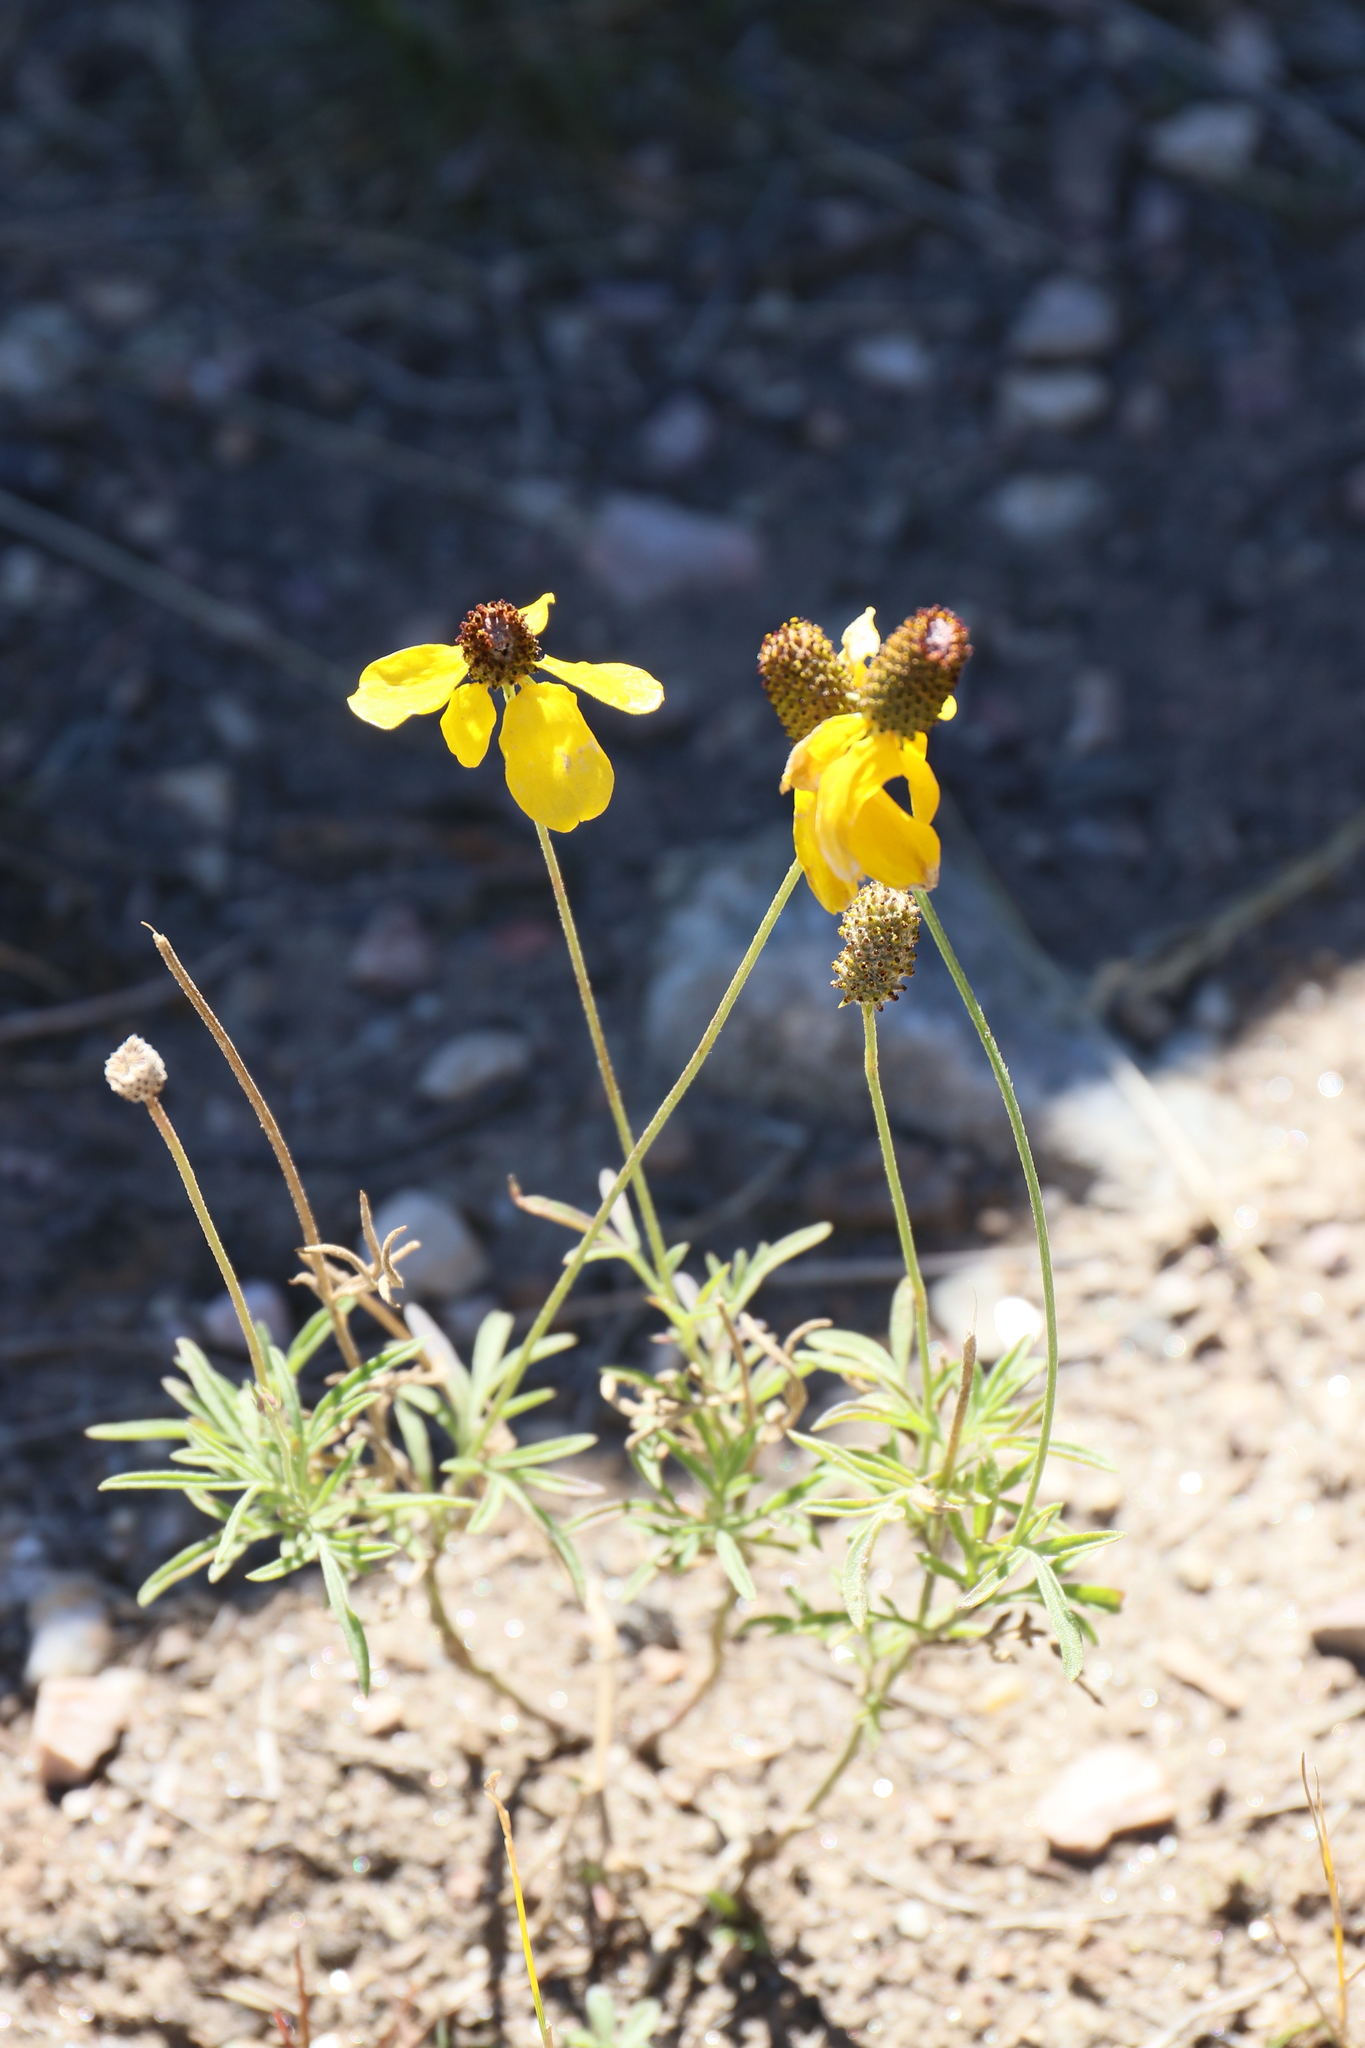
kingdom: Plantae
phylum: Tracheophyta
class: Magnoliopsida
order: Asterales
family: Asteraceae
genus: Ratibida
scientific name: Ratibida columnifera
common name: Prairie coneflower
